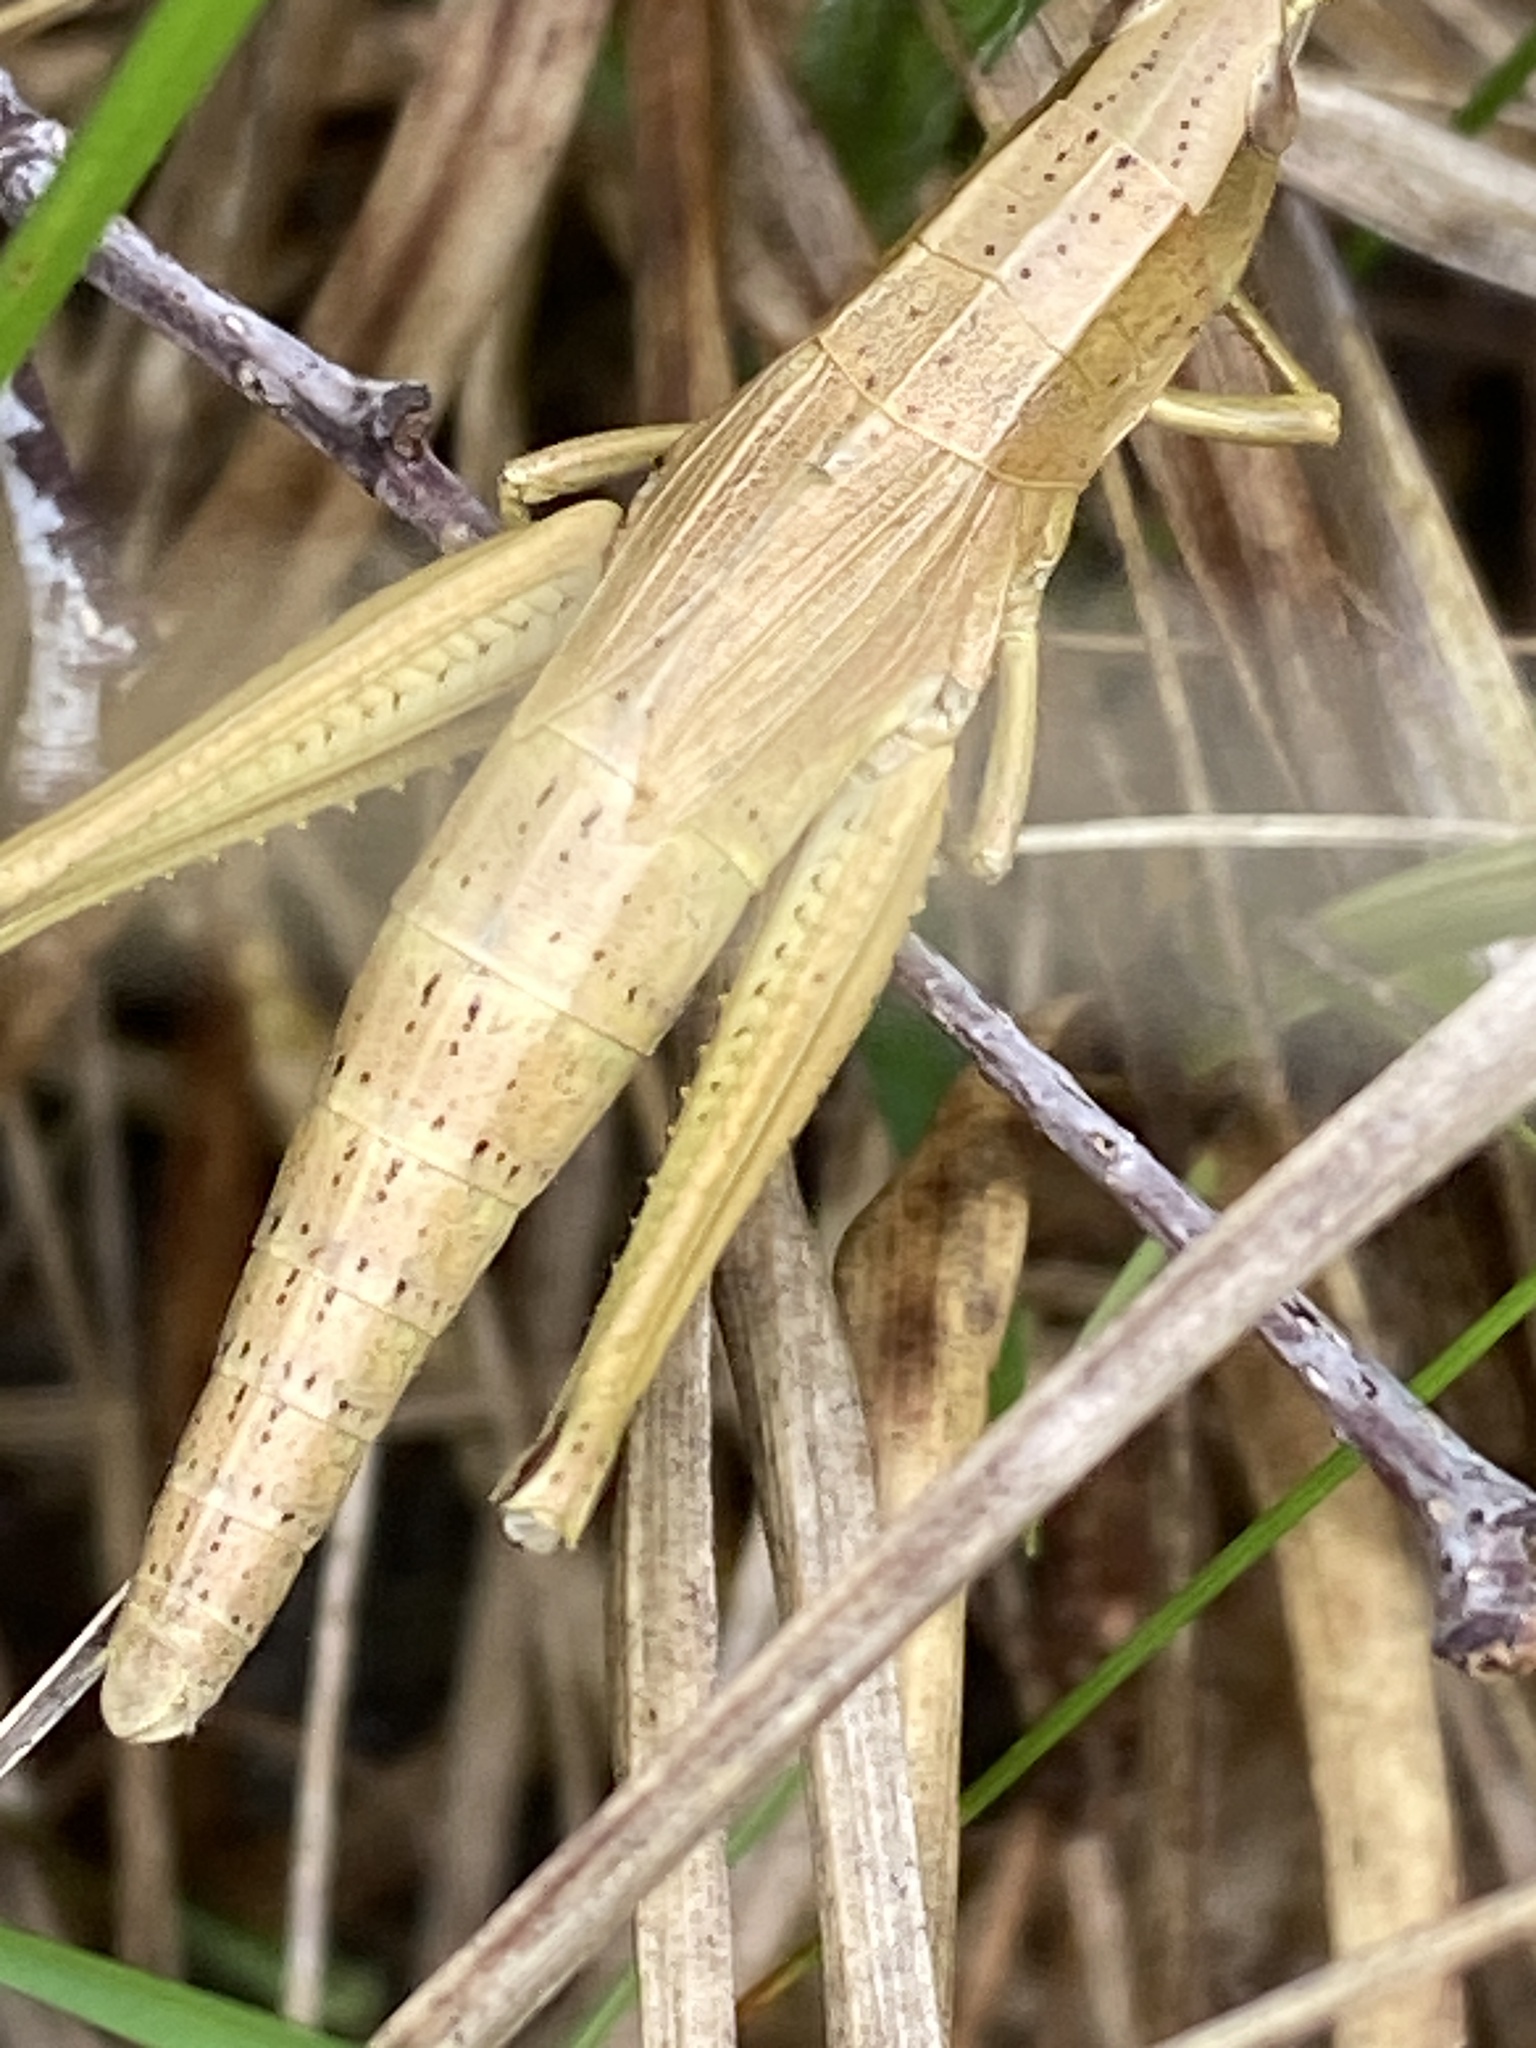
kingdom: Animalia
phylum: Arthropoda
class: Insecta
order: Orthoptera
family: Acrididae
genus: Chrysochraon
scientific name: Chrysochraon dispar
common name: Large gold grasshopper
